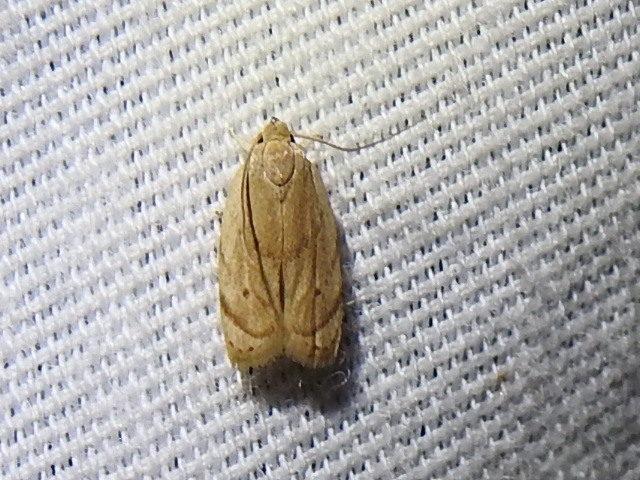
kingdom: Animalia
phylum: Arthropoda
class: Insecta
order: Lepidoptera
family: Depressariidae
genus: Antaeotricha
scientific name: Antaeotricha haesitans
